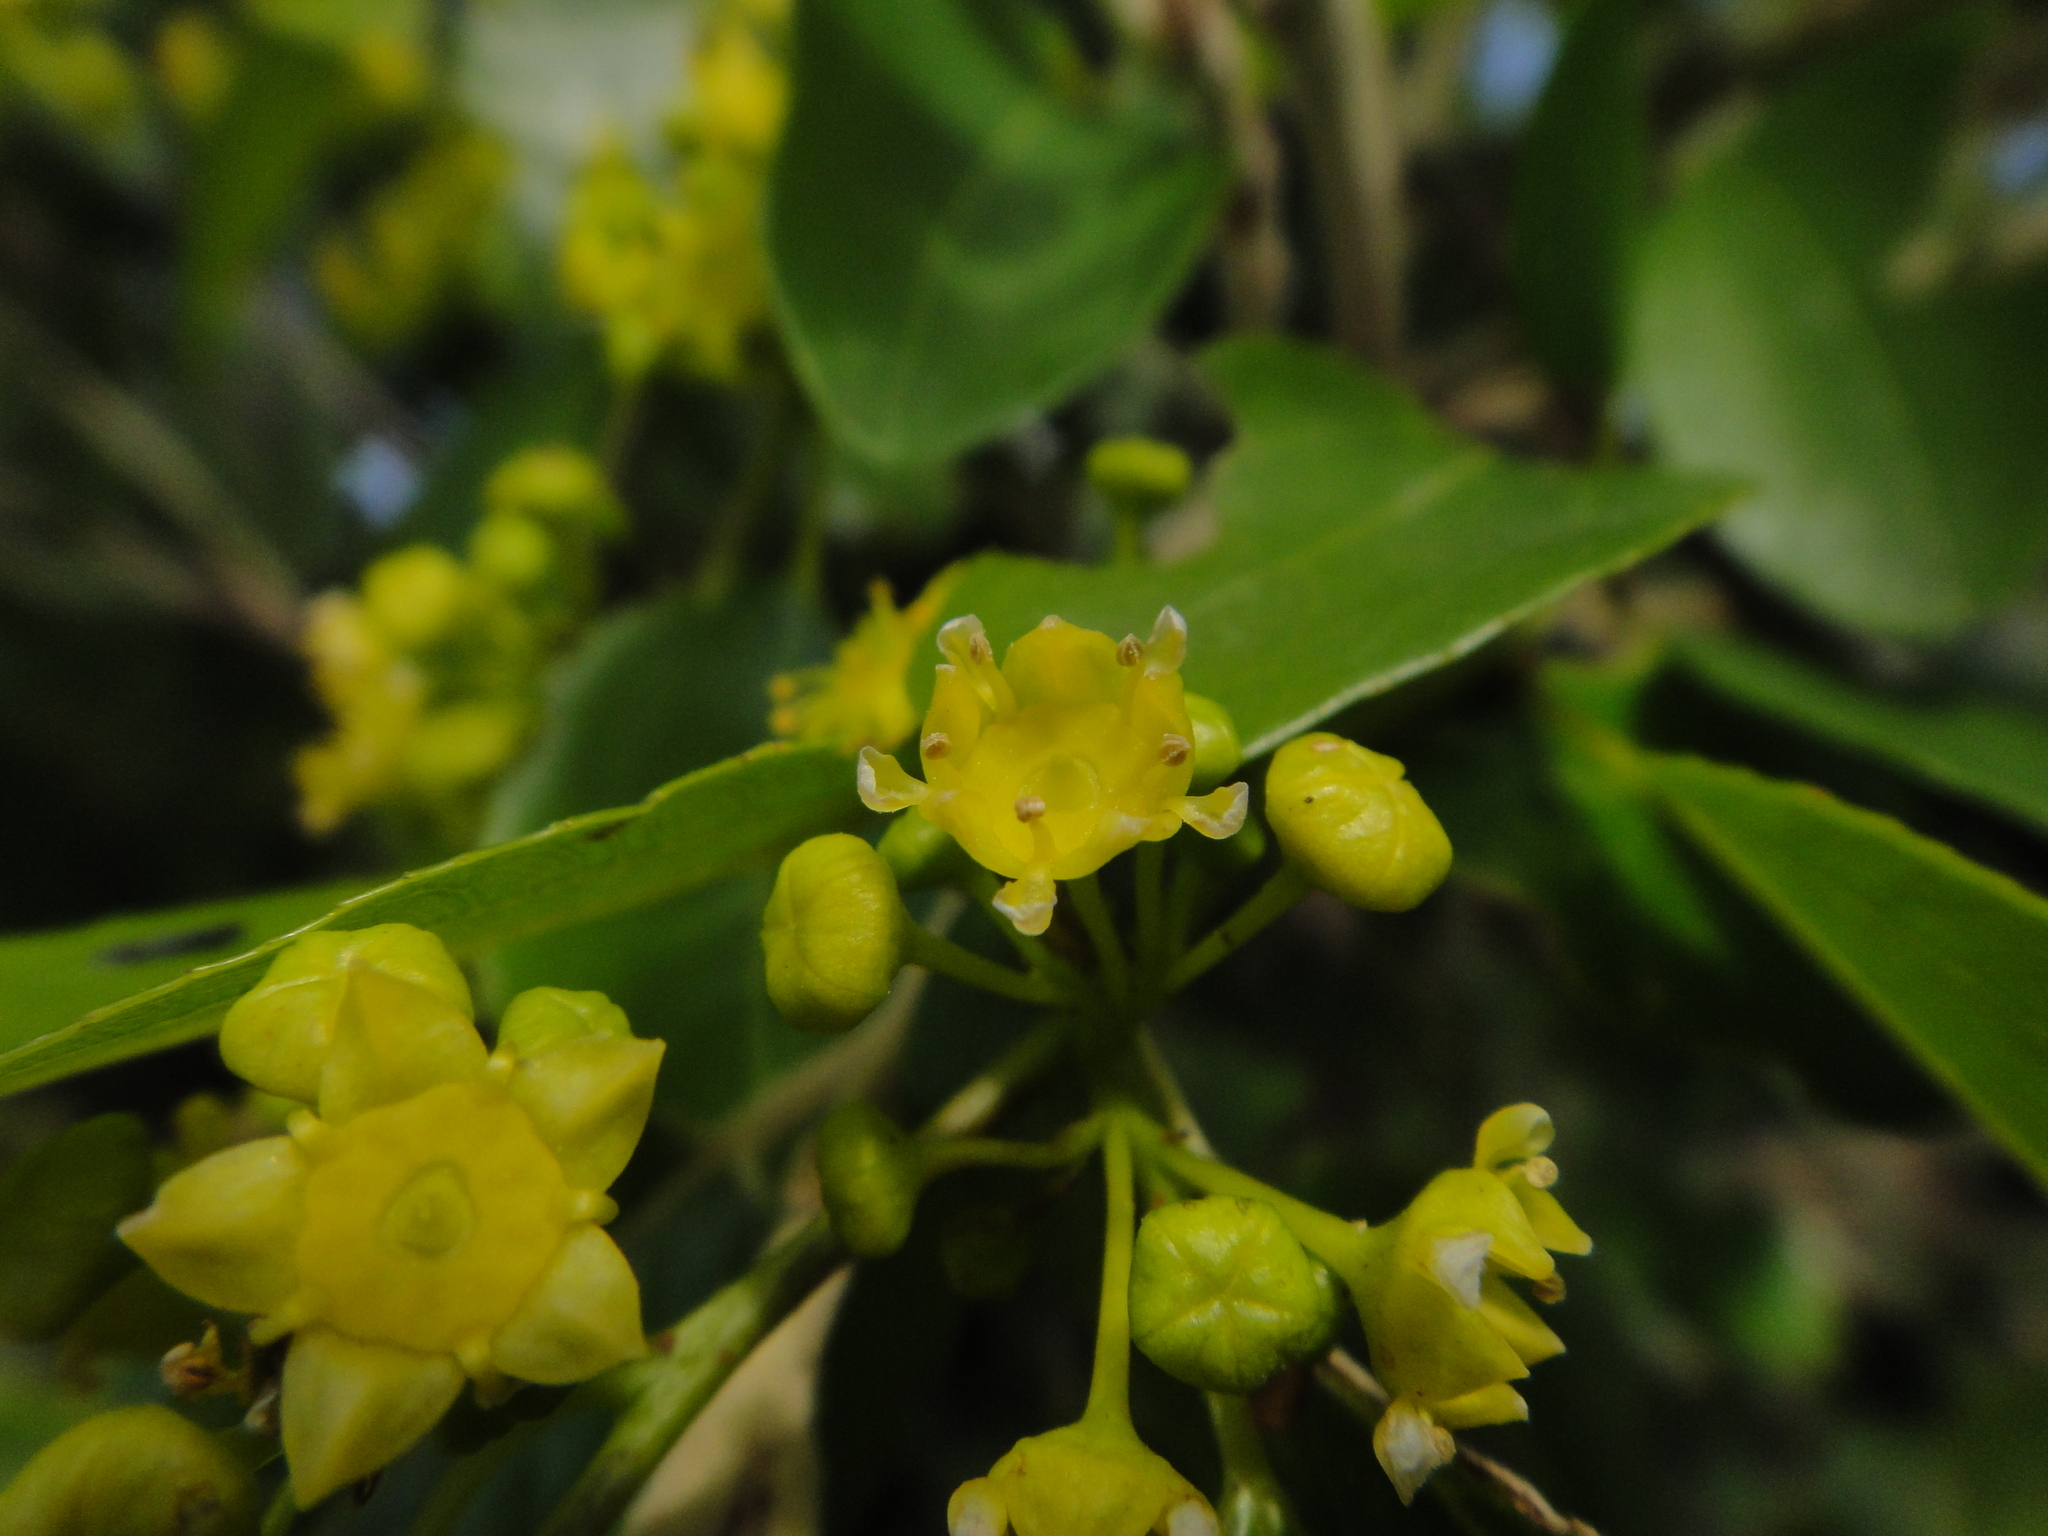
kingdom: Plantae
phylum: Tracheophyta
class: Magnoliopsida
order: Rosales
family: Rhamnaceae
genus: Paliurus
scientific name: Paliurus spina-christi
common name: Jeruselem thorn
